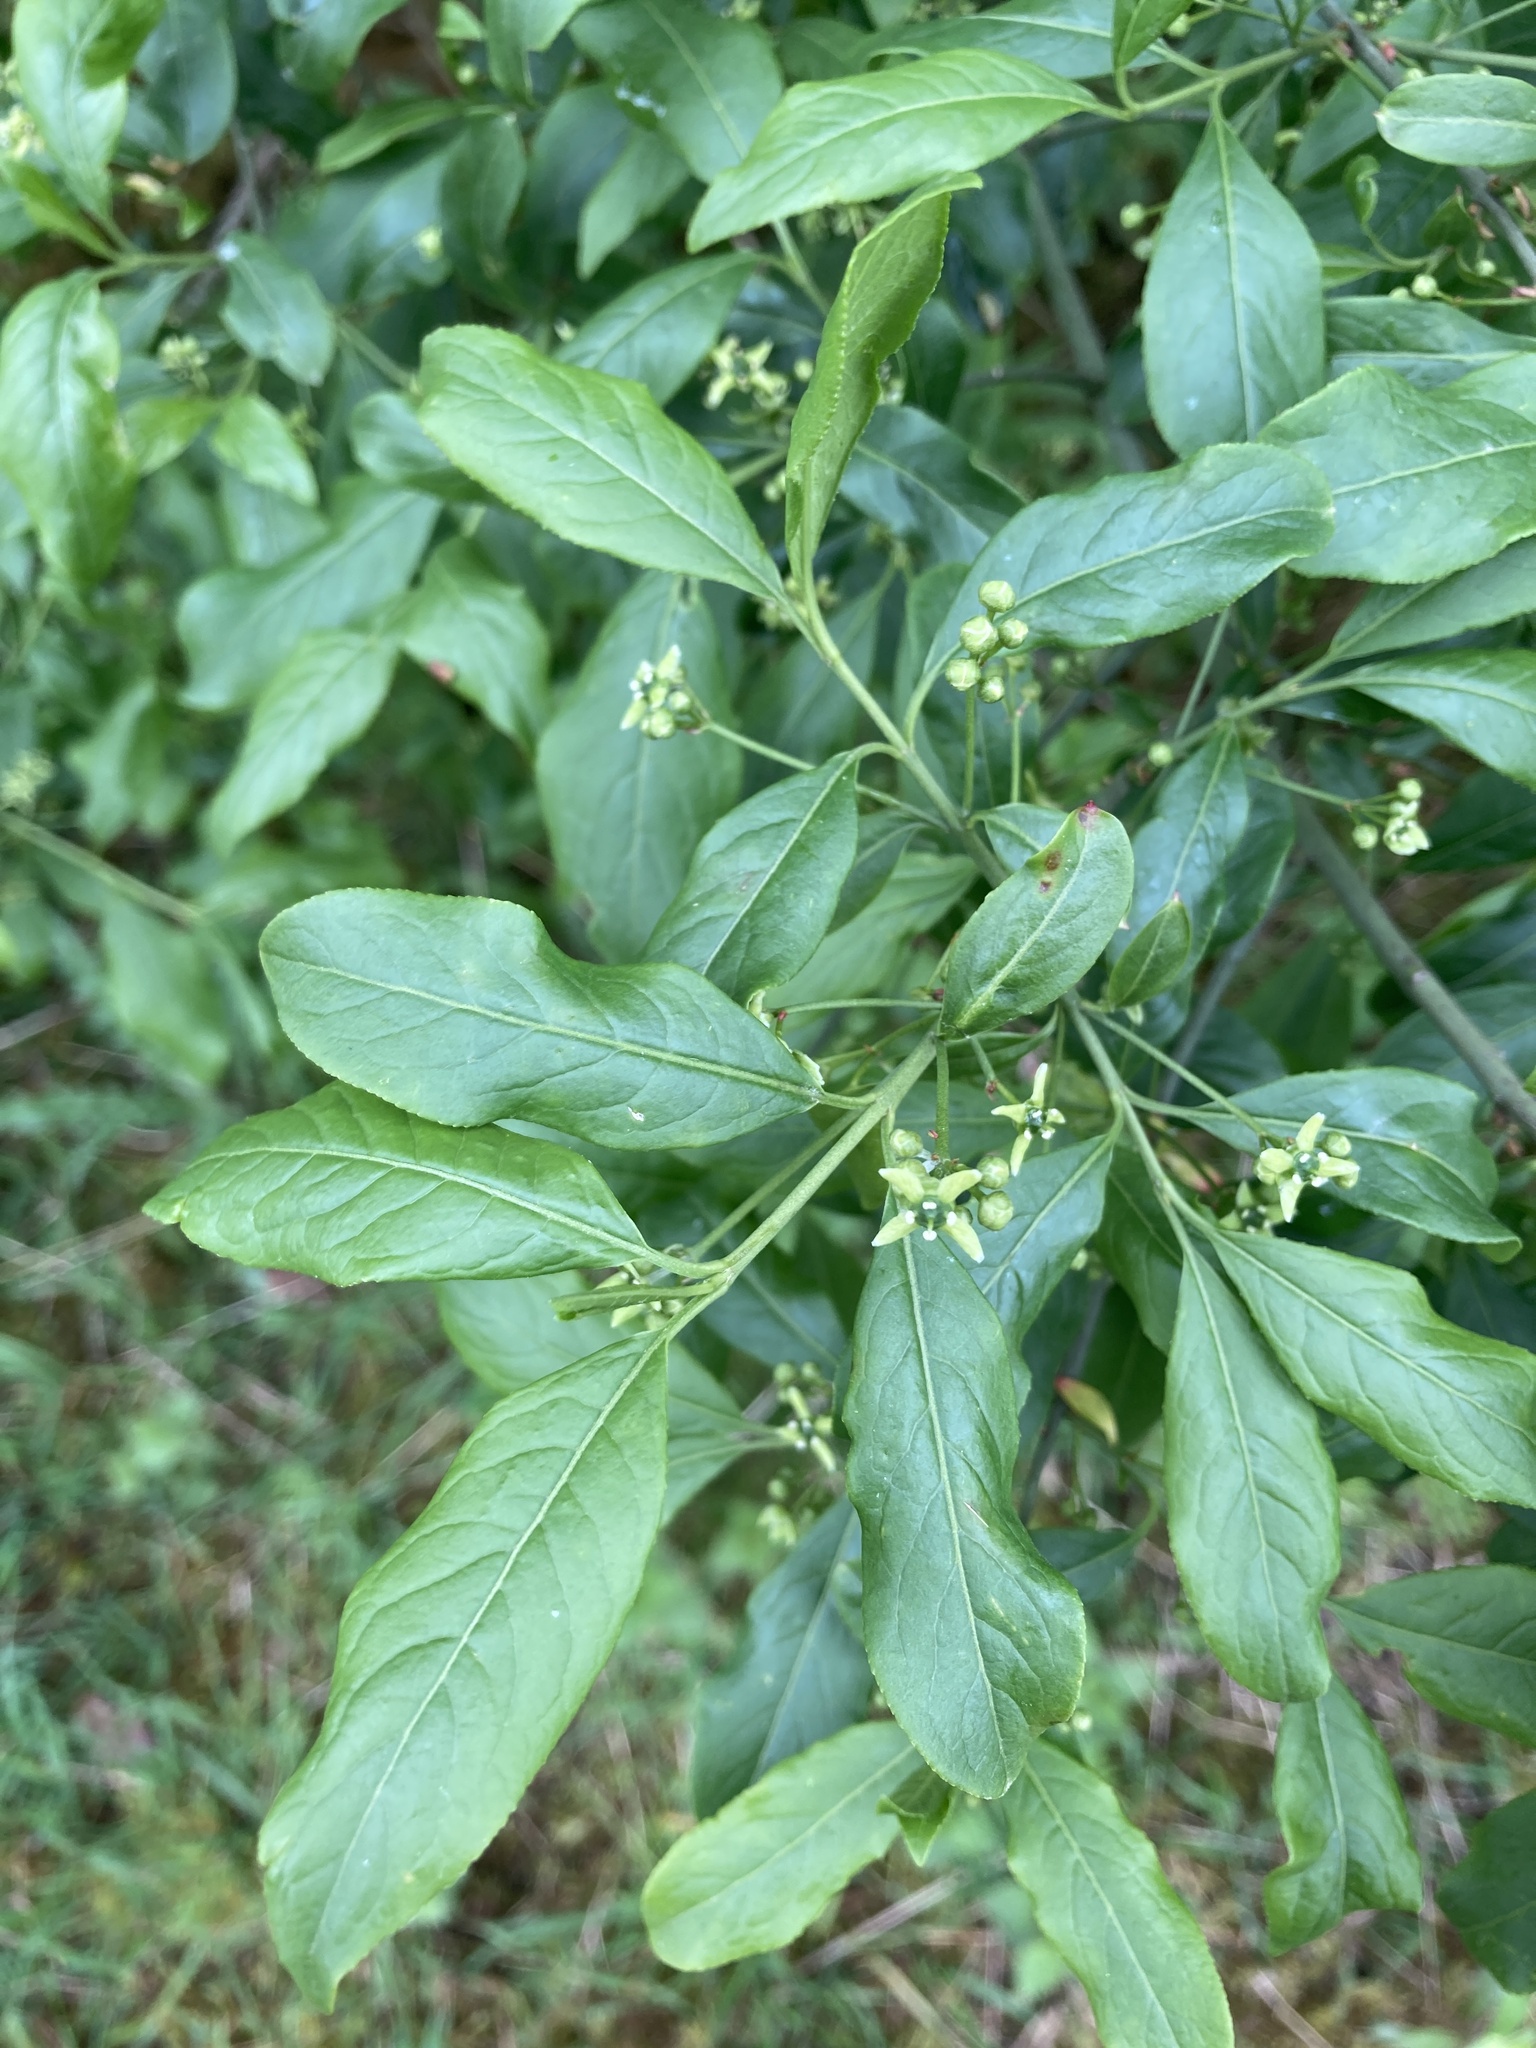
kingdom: Plantae
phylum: Tracheophyta
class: Magnoliopsida
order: Celastrales
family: Celastraceae
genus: Euonymus
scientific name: Euonymus europaeus
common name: Spindle
